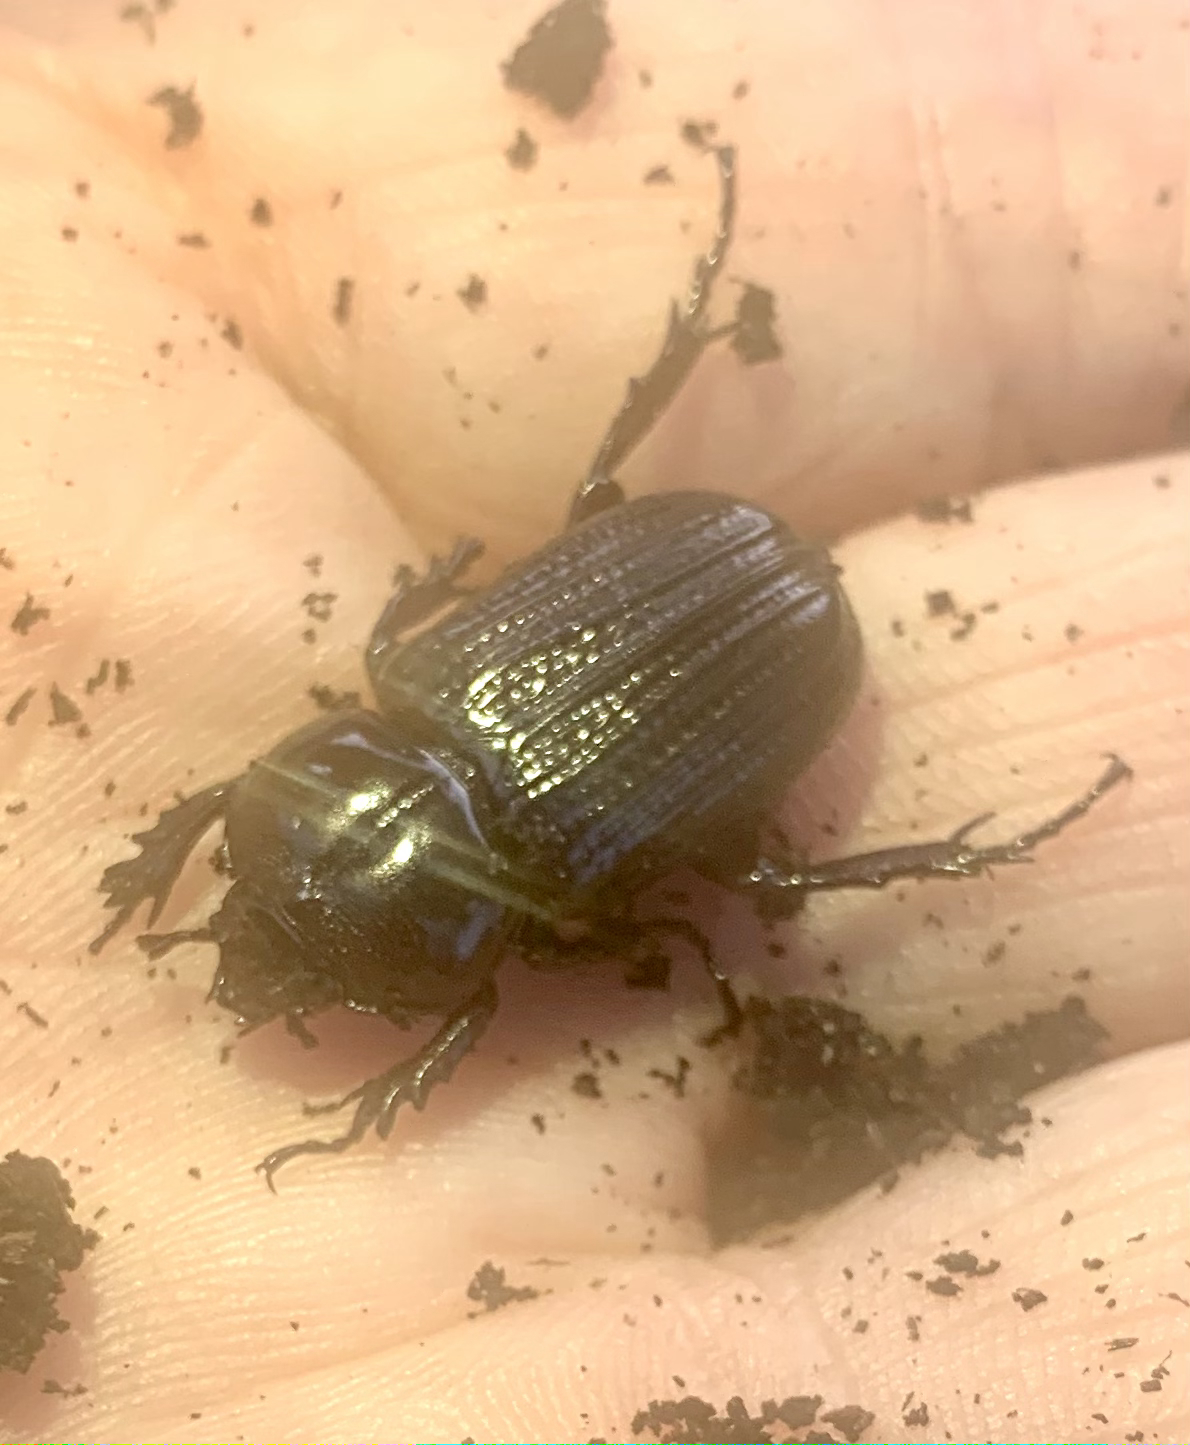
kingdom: Animalia
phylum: Arthropoda
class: Insecta
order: Coleoptera
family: Scarabaeidae
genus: Phileurus
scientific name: Phileurus valgus
